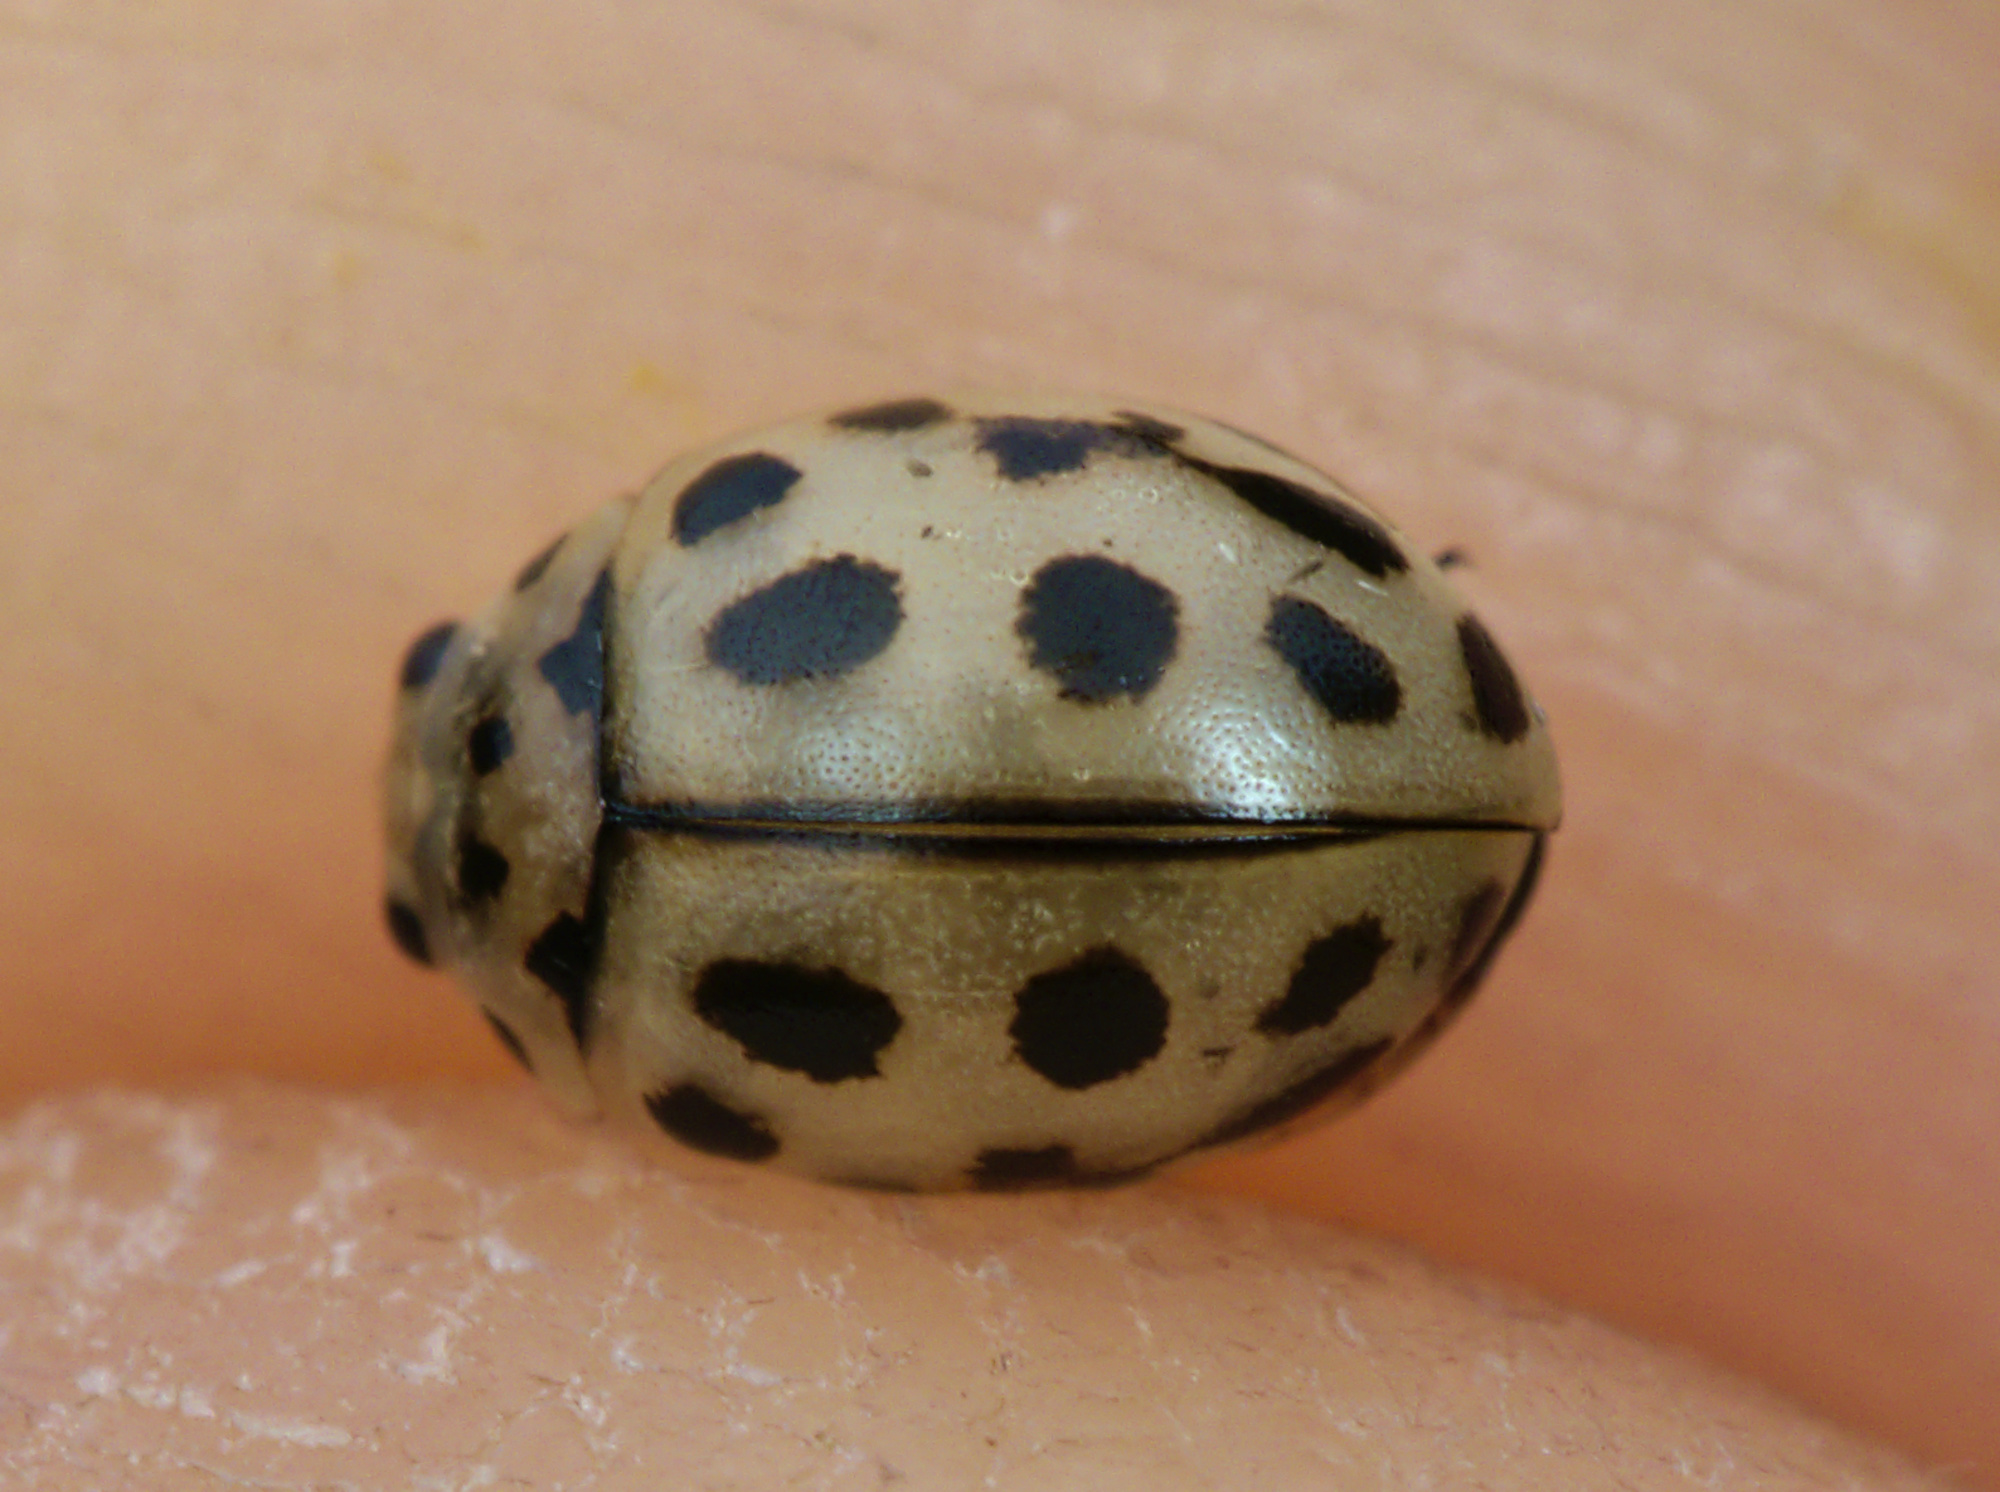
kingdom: Animalia
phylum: Arthropoda
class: Insecta
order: Coleoptera
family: Coccinellidae
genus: Tytthaspis
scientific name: Tytthaspis sedecimpunctata
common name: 16-spot ladybird
